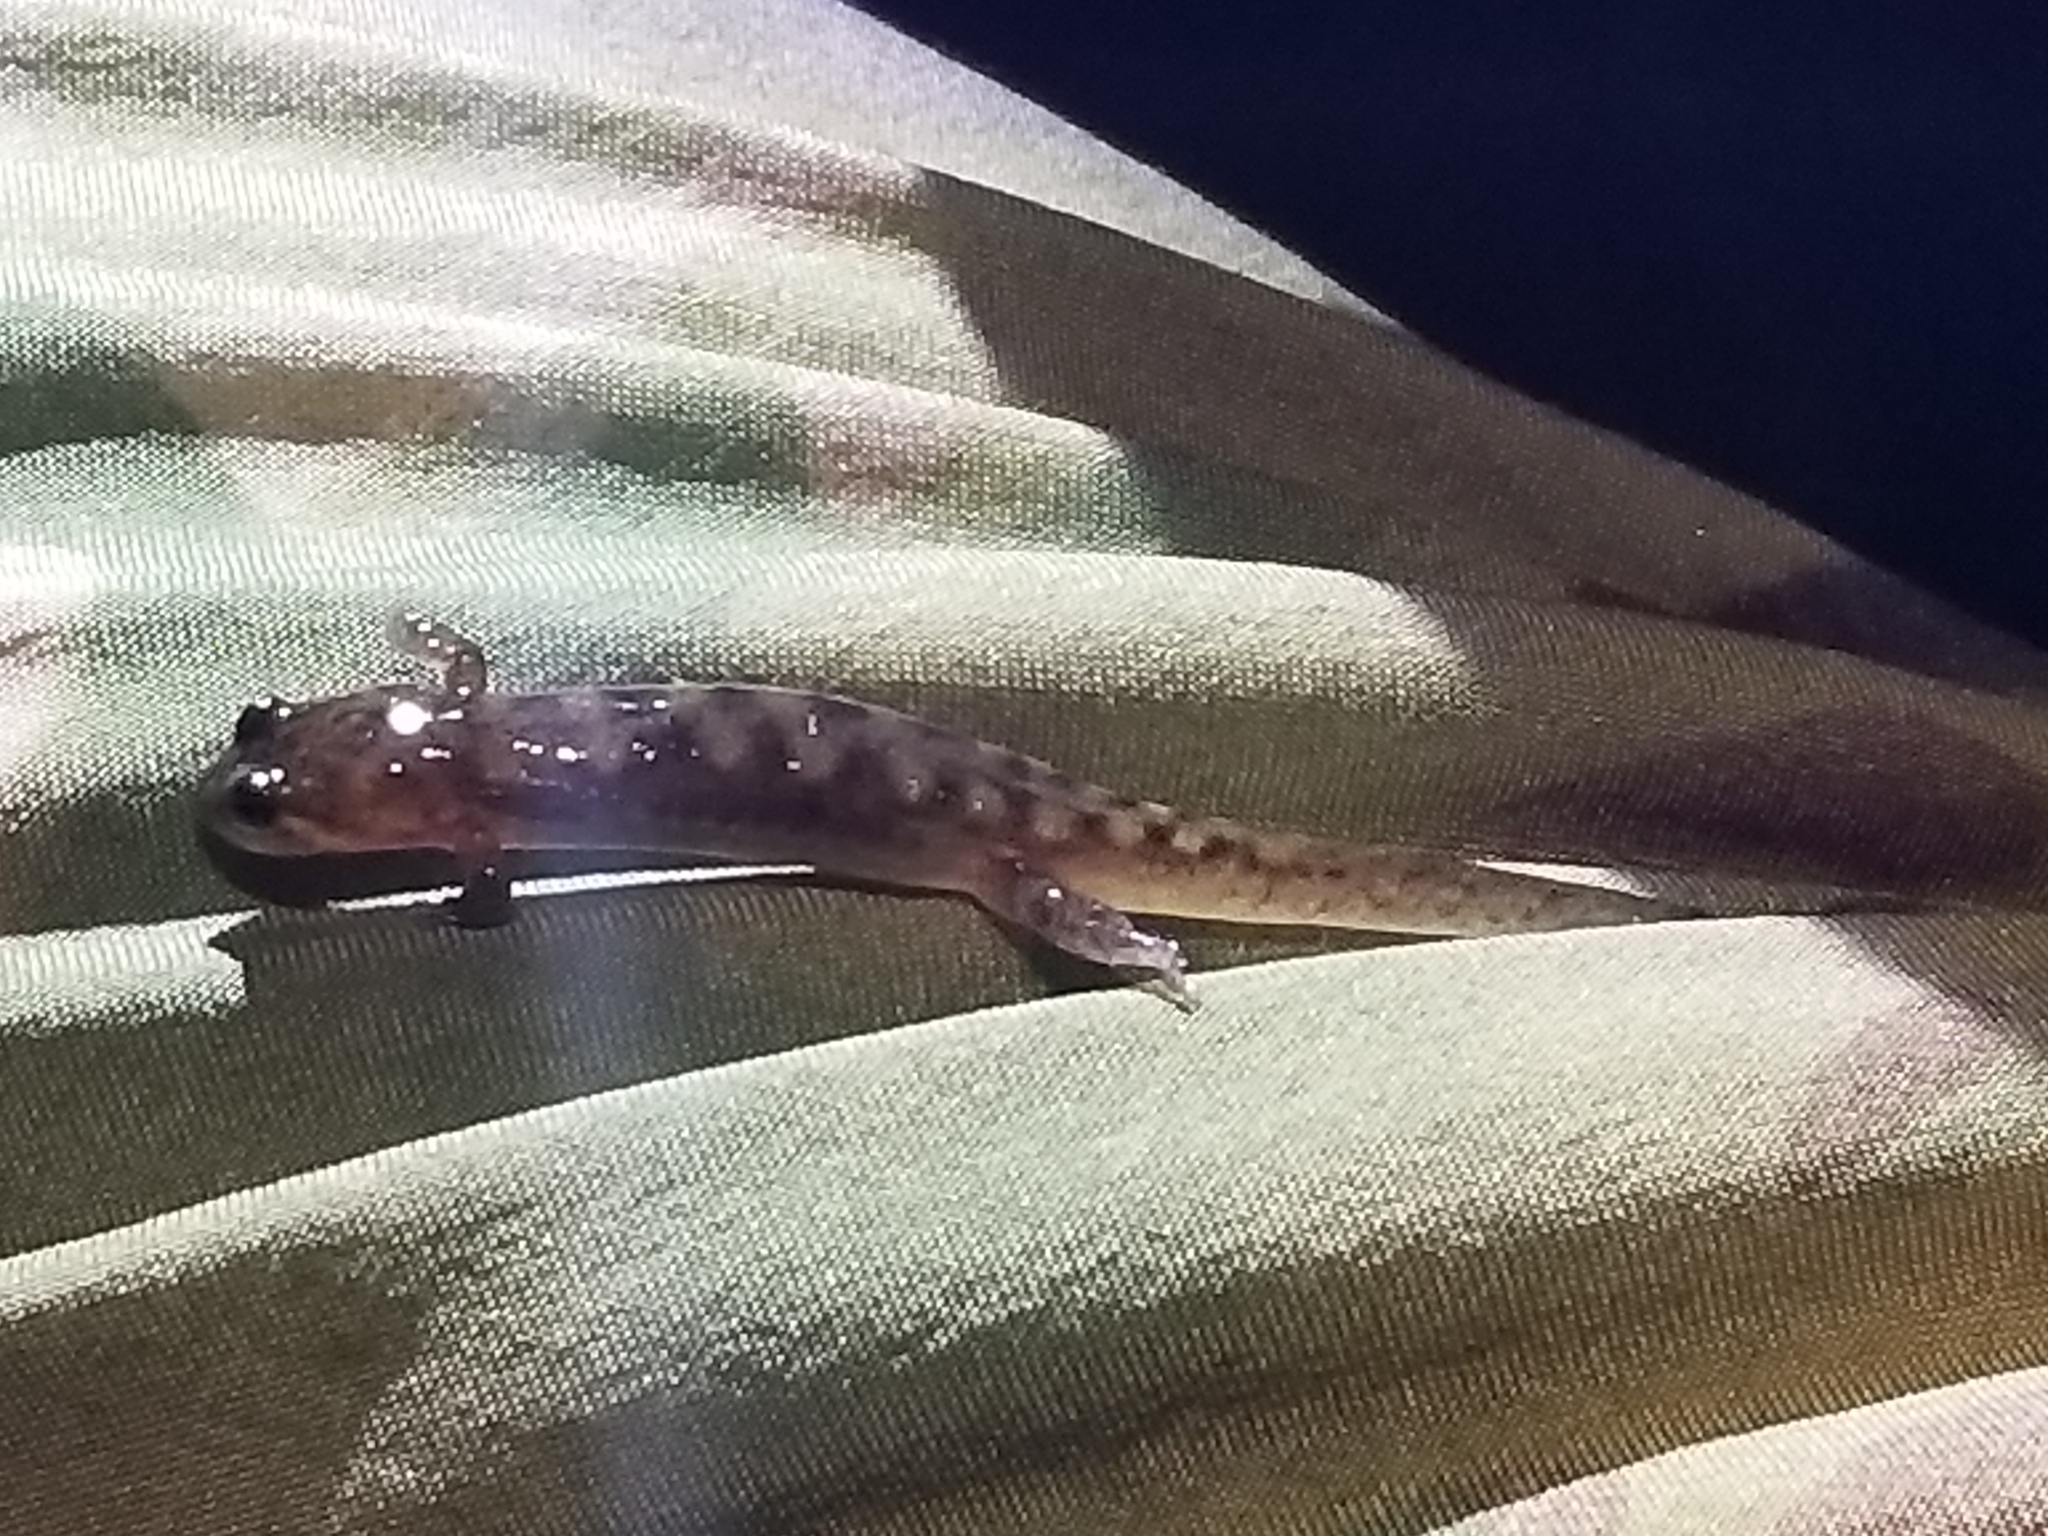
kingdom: Animalia
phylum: Chordata
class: Amphibia
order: Caudata
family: Plethodontidae
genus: Desmognathus
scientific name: Desmognathus monticola
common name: Seal salamander
